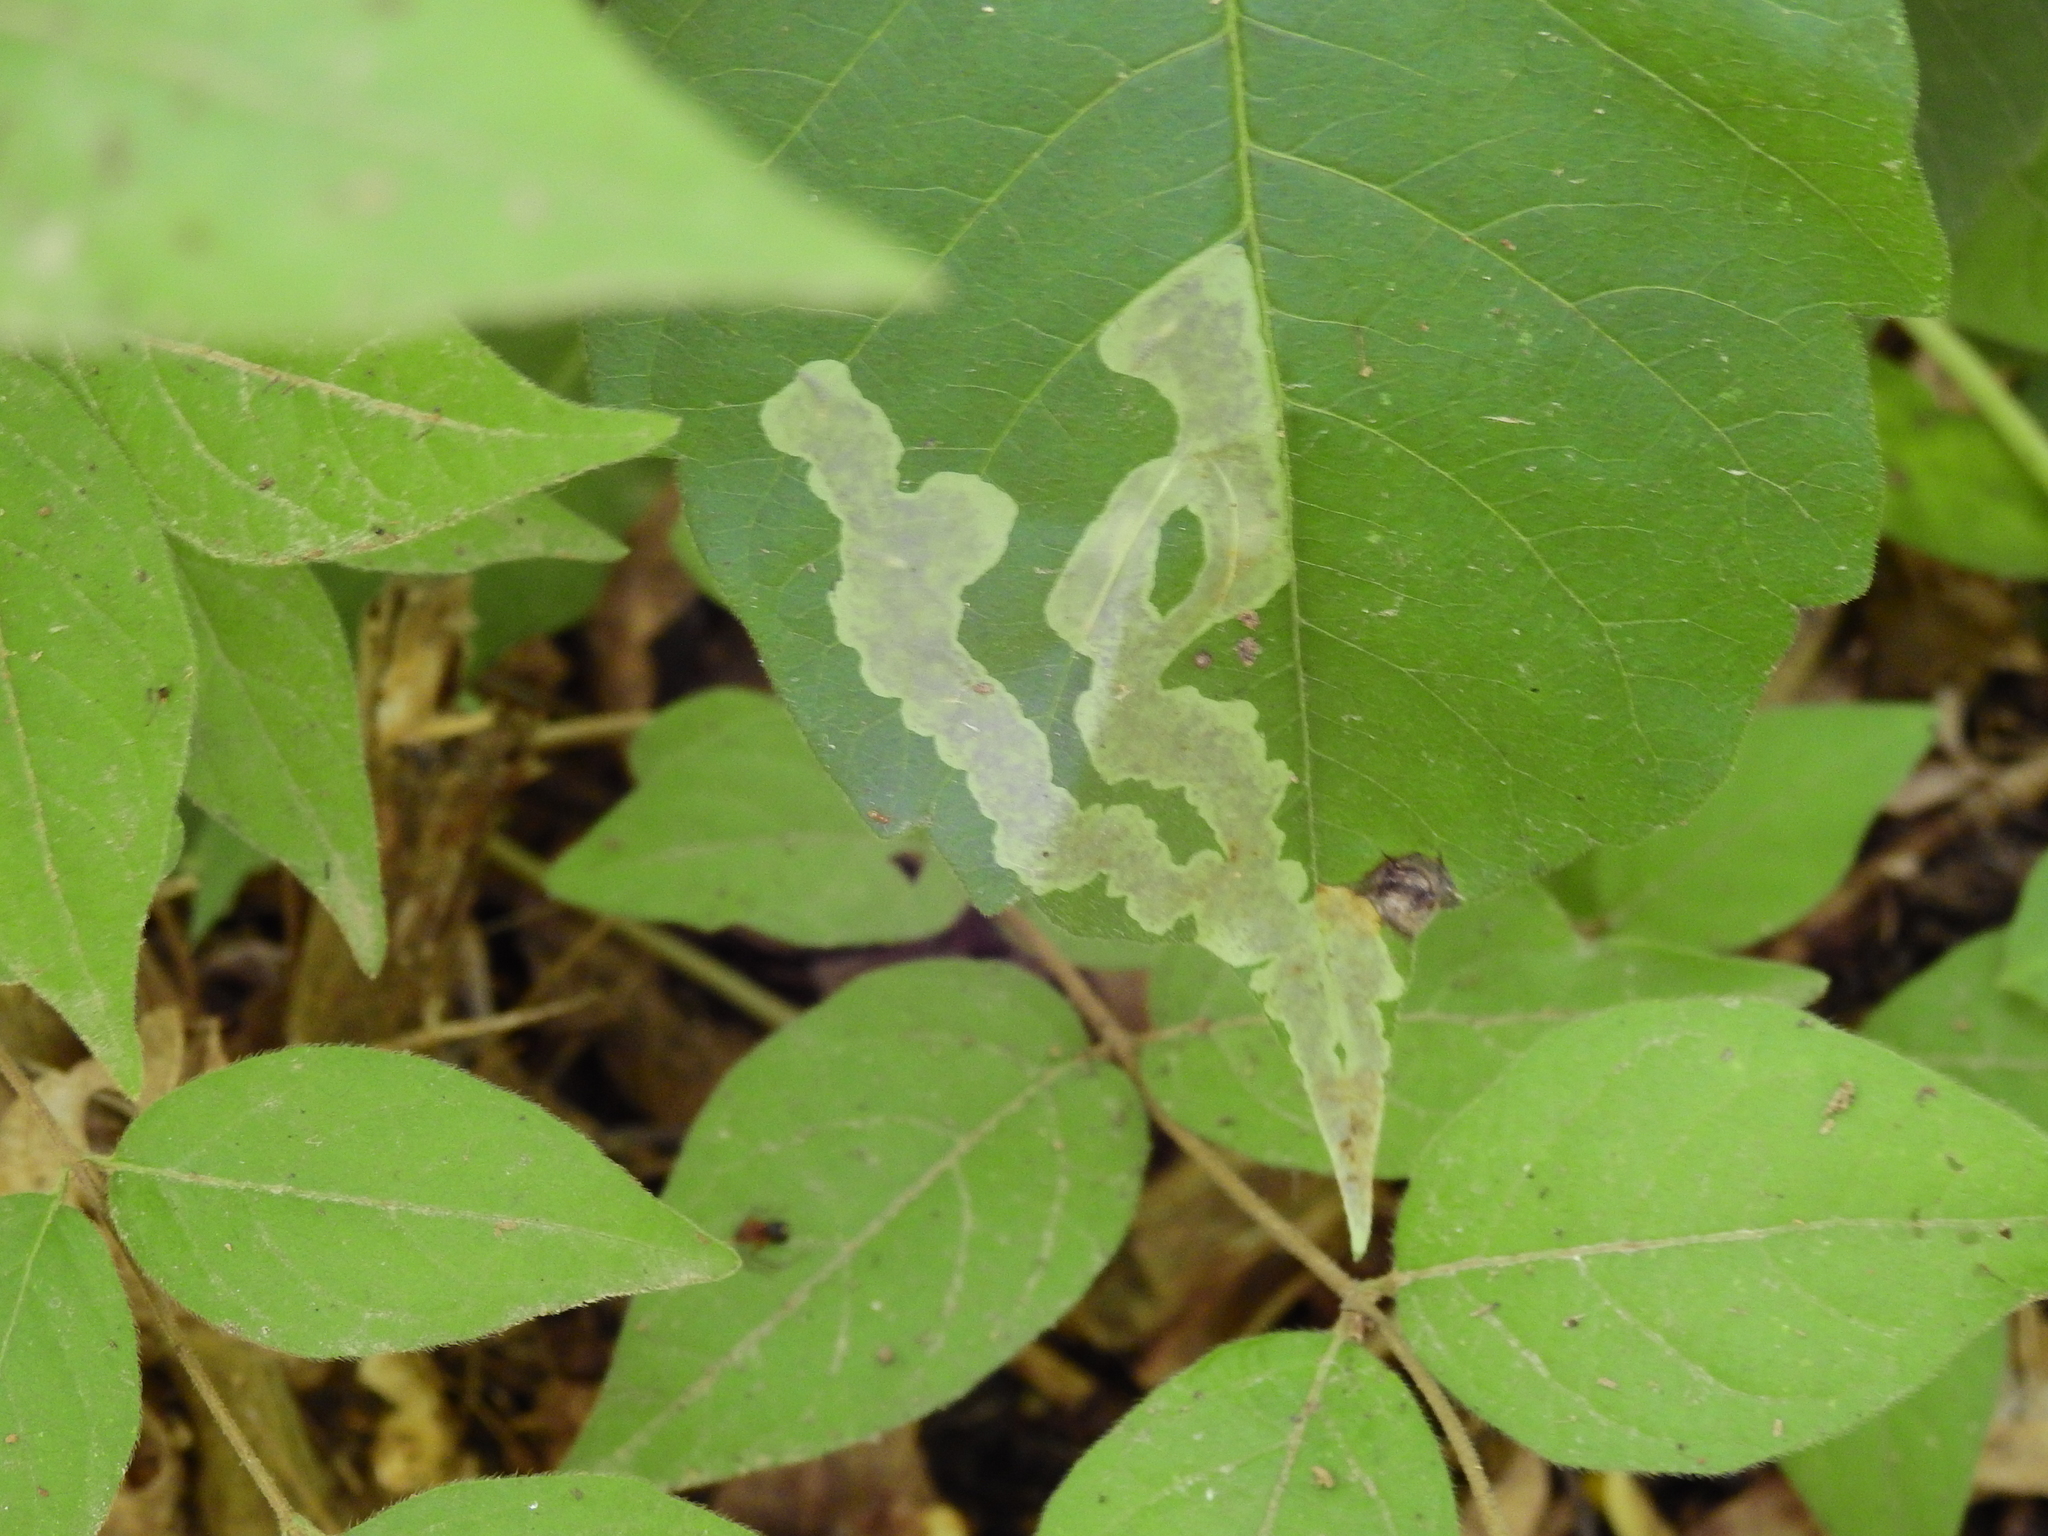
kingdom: Animalia
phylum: Arthropoda
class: Insecta
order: Lepidoptera
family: Gracillariidae
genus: Cameraria
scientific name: Cameraria guttifinitella
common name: Poison ivy leaf-miner moth
